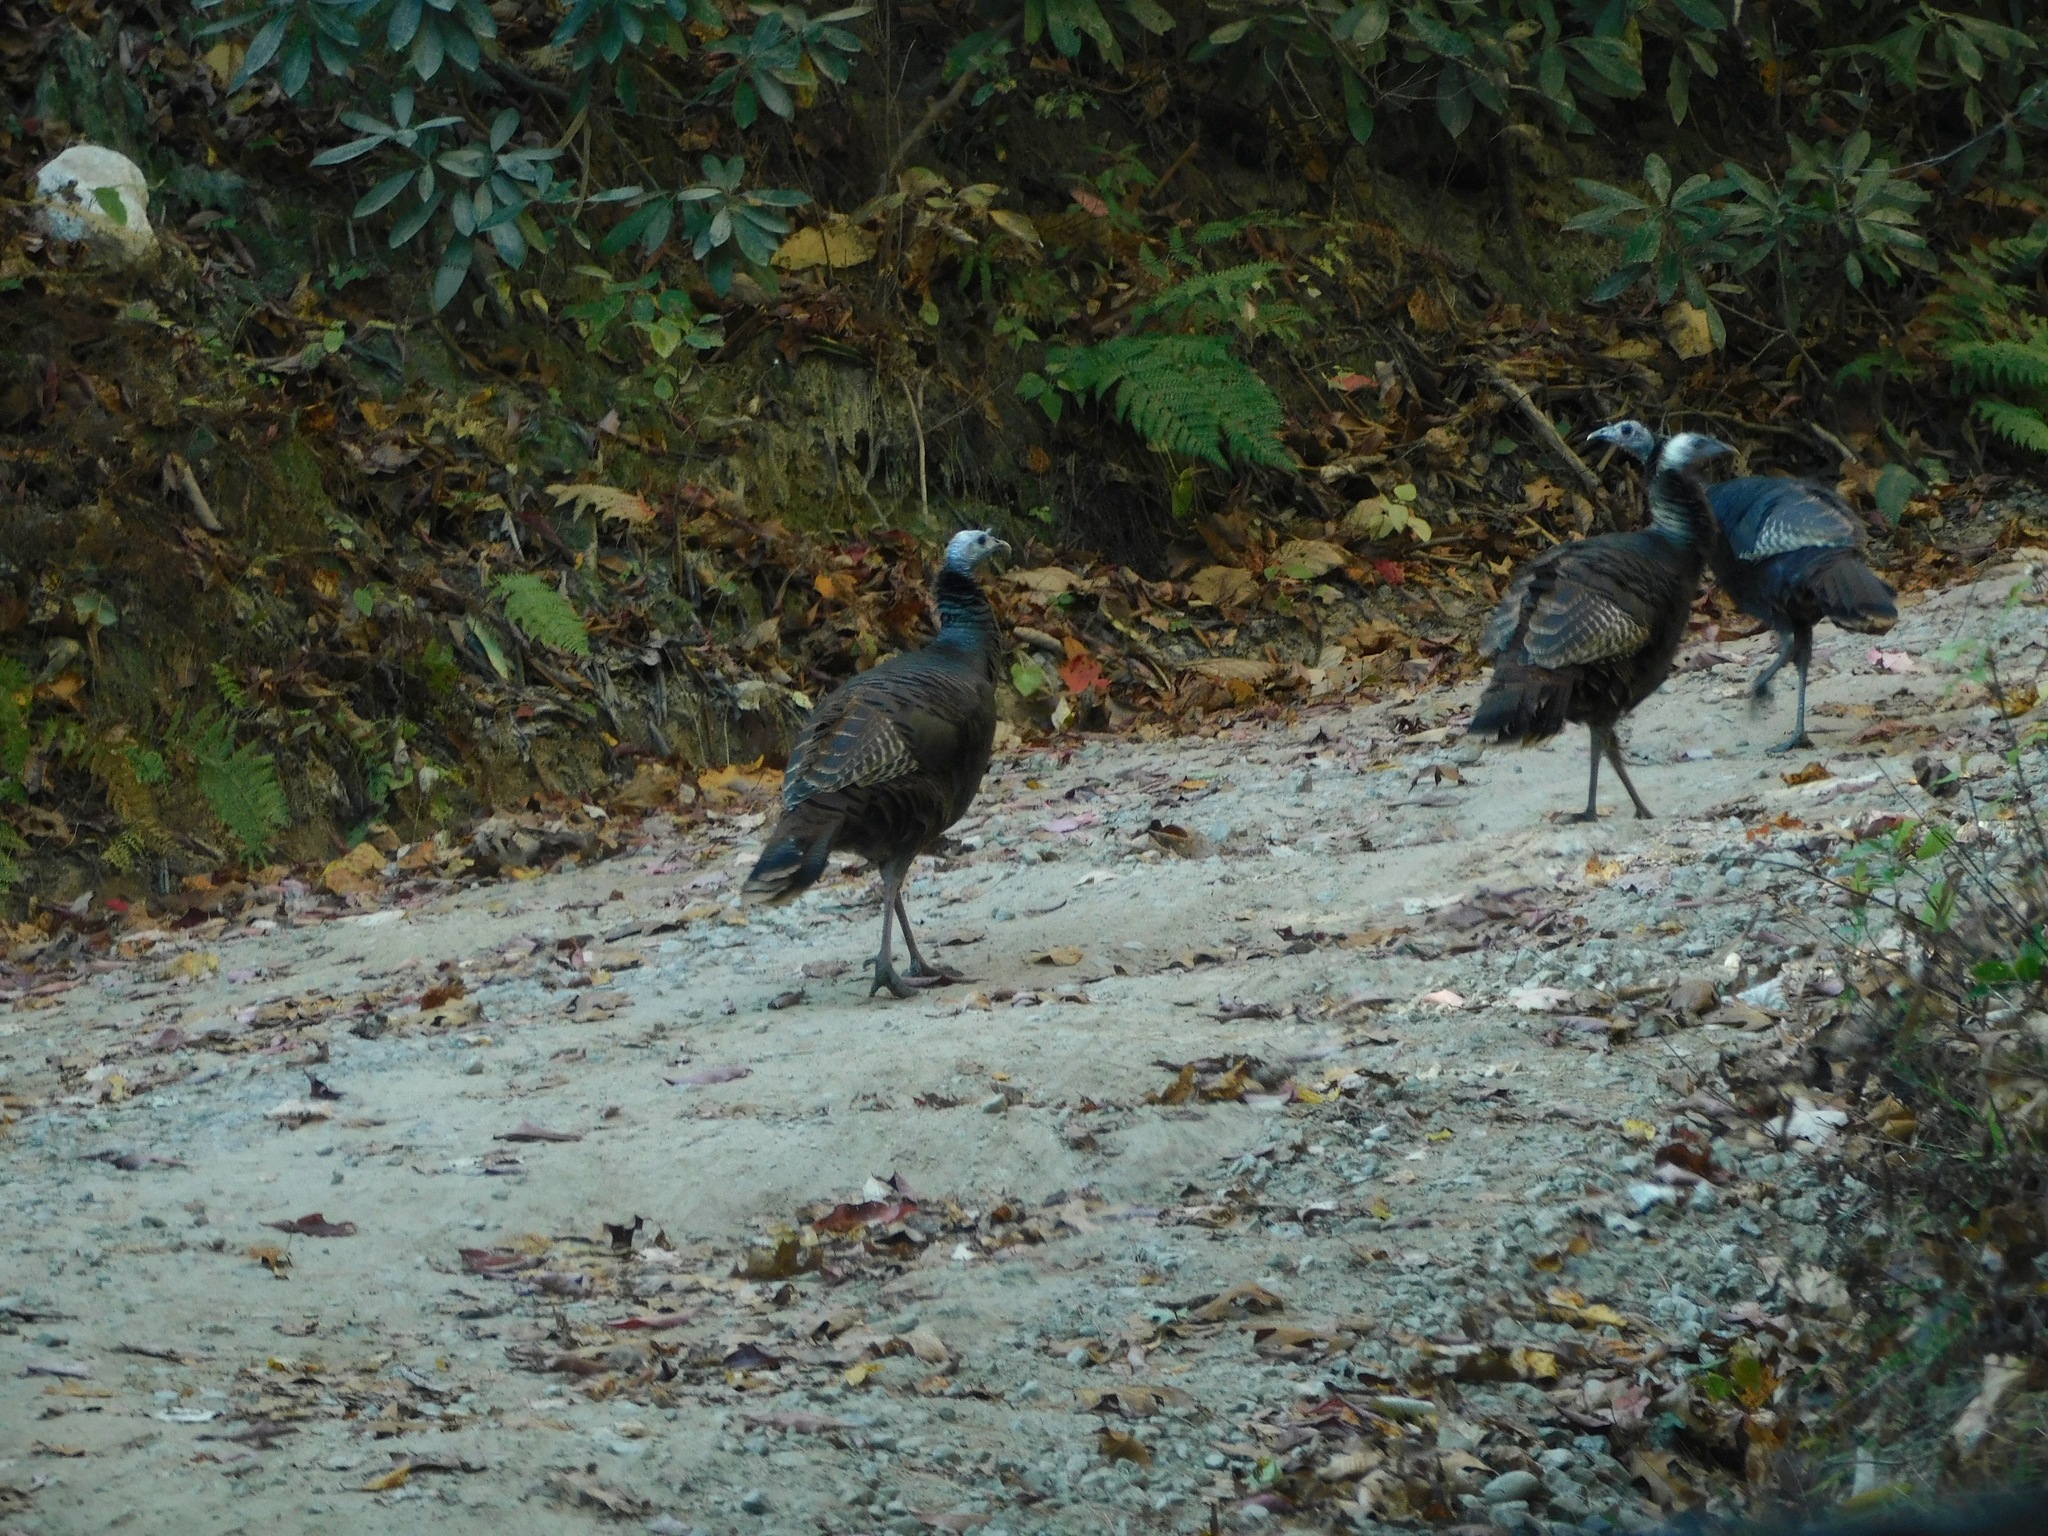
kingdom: Animalia
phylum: Chordata
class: Aves
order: Galliformes
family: Phasianidae
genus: Meleagris
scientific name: Meleagris gallopavo
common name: Wild turkey
